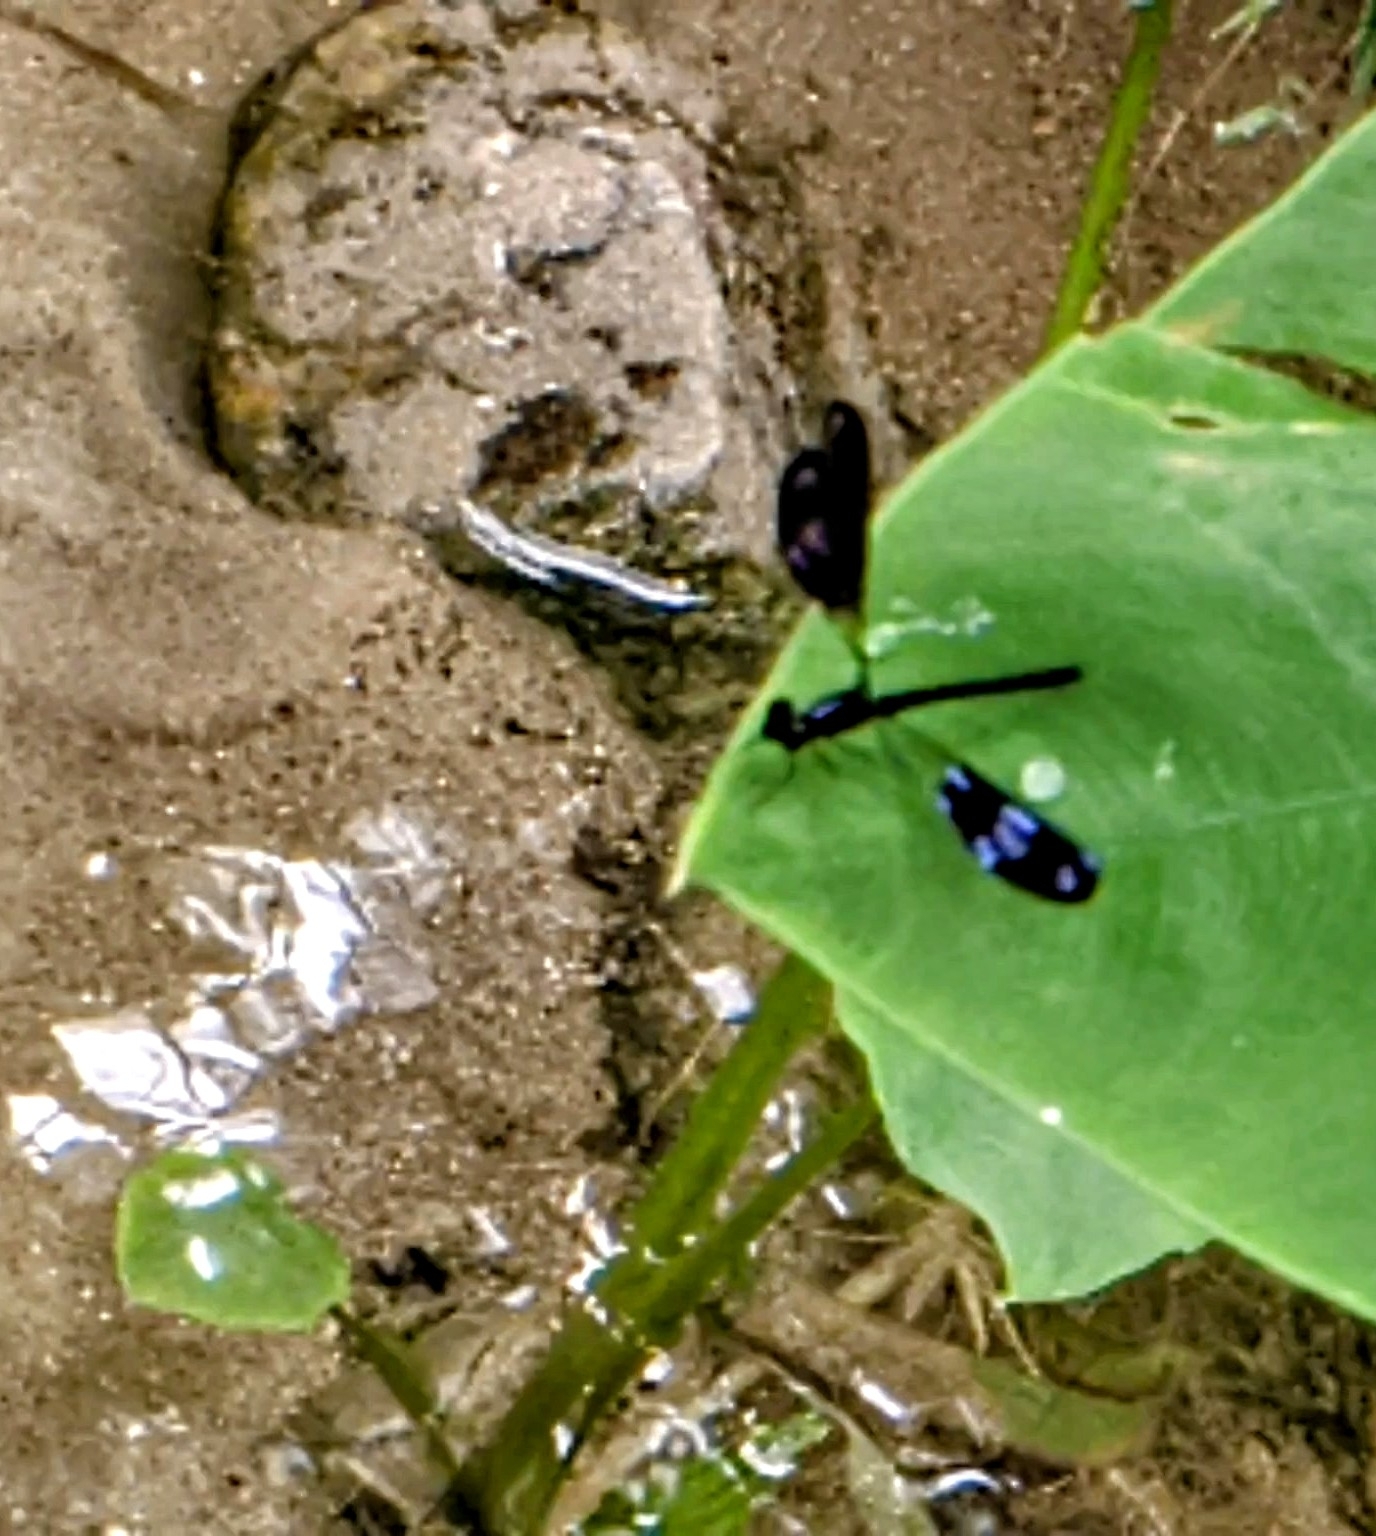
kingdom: Animalia
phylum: Arthropoda
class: Insecta
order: Odonata
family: Chlorocyphidae
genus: Aristocypha
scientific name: Aristocypha fenestrella
